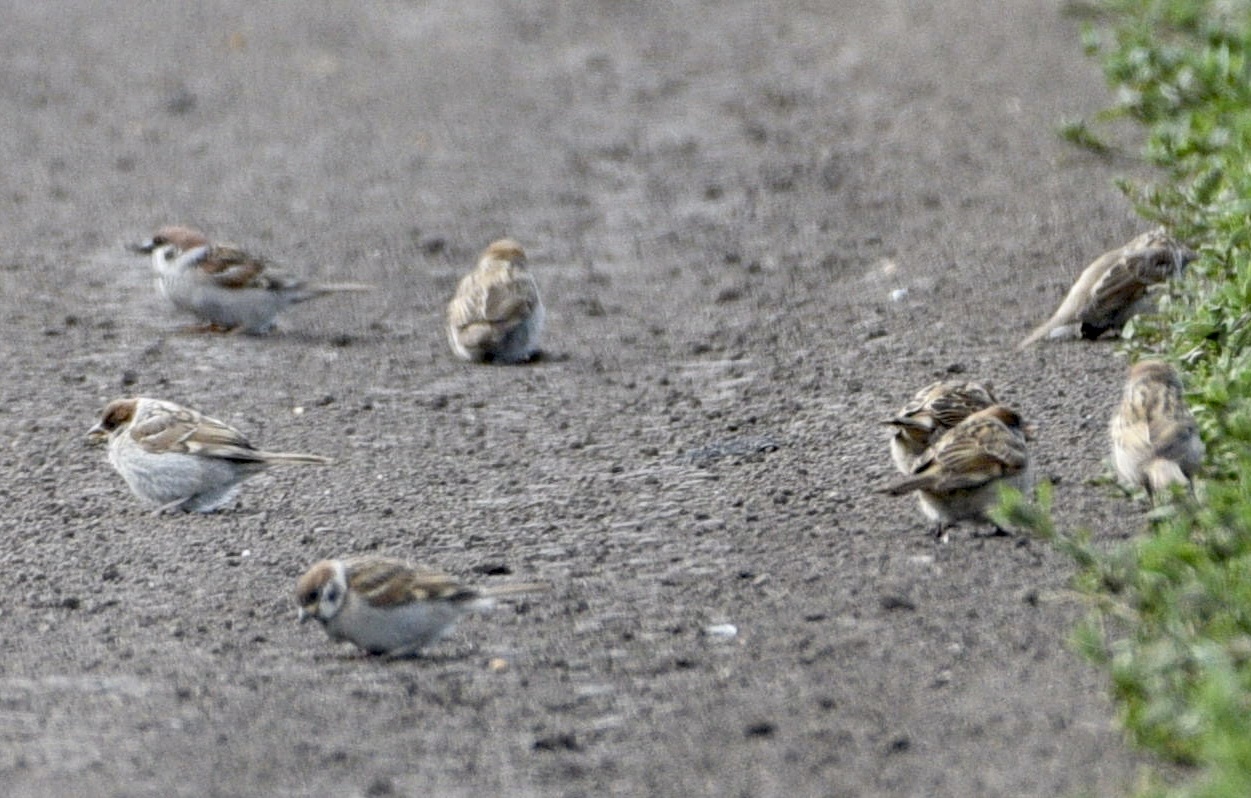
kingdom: Animalia
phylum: Chordata
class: Aves
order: Passeriformes
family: Passeridae
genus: Passer
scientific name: Passer montanus
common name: Eurasian tree sparrow
